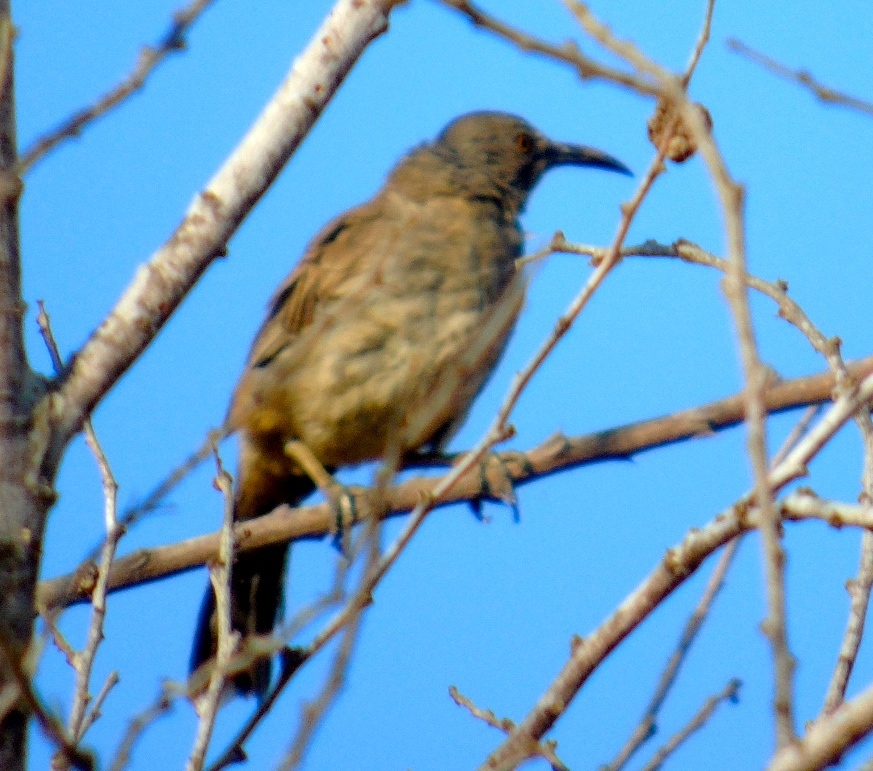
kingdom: Animalia
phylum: Chordata
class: Aves
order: Passeriformes
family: Mimidae
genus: Toxostoma
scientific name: Toxostoma curvirostre
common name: Curve-billed thrasher
